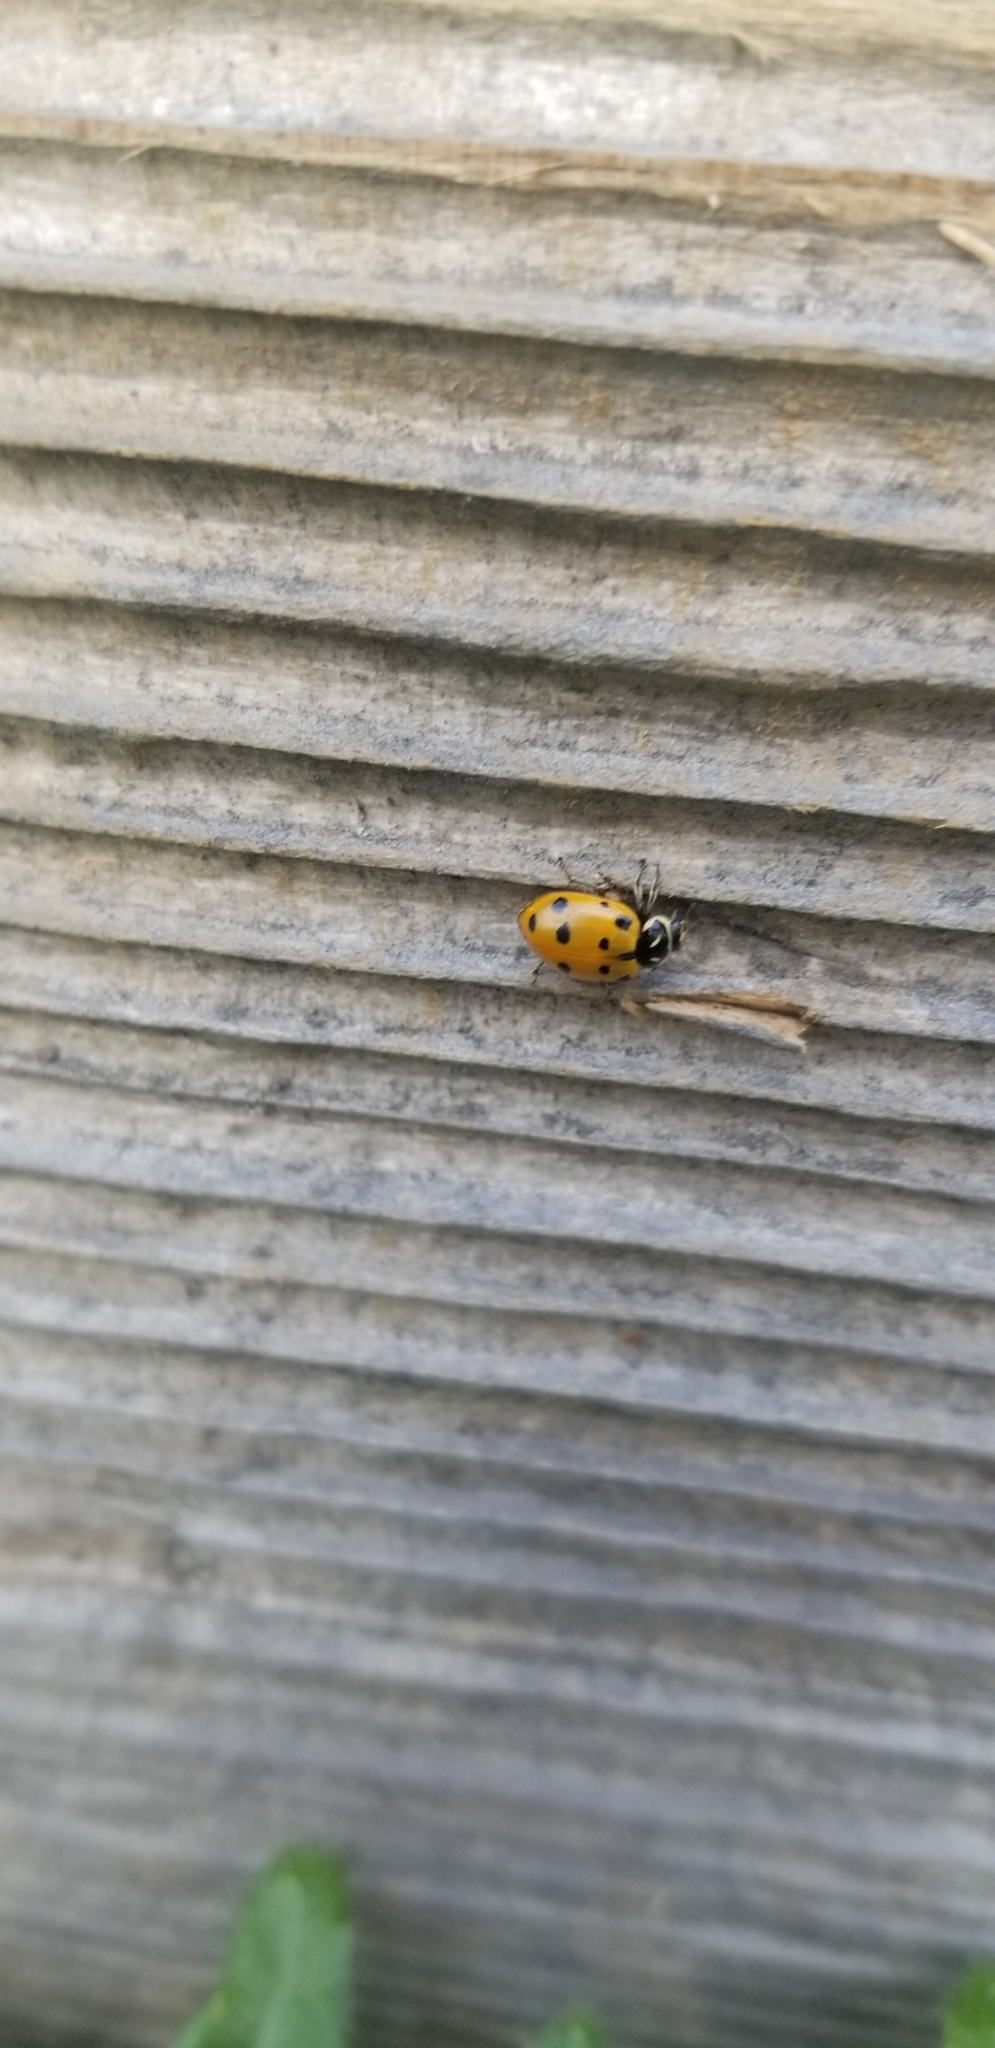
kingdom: Animalia
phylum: Arthropoda
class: Insecta
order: Coleoptera
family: Coccinellidae
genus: Hippodamia
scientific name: Hippodamia convergens
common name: Convergent lady beetle
